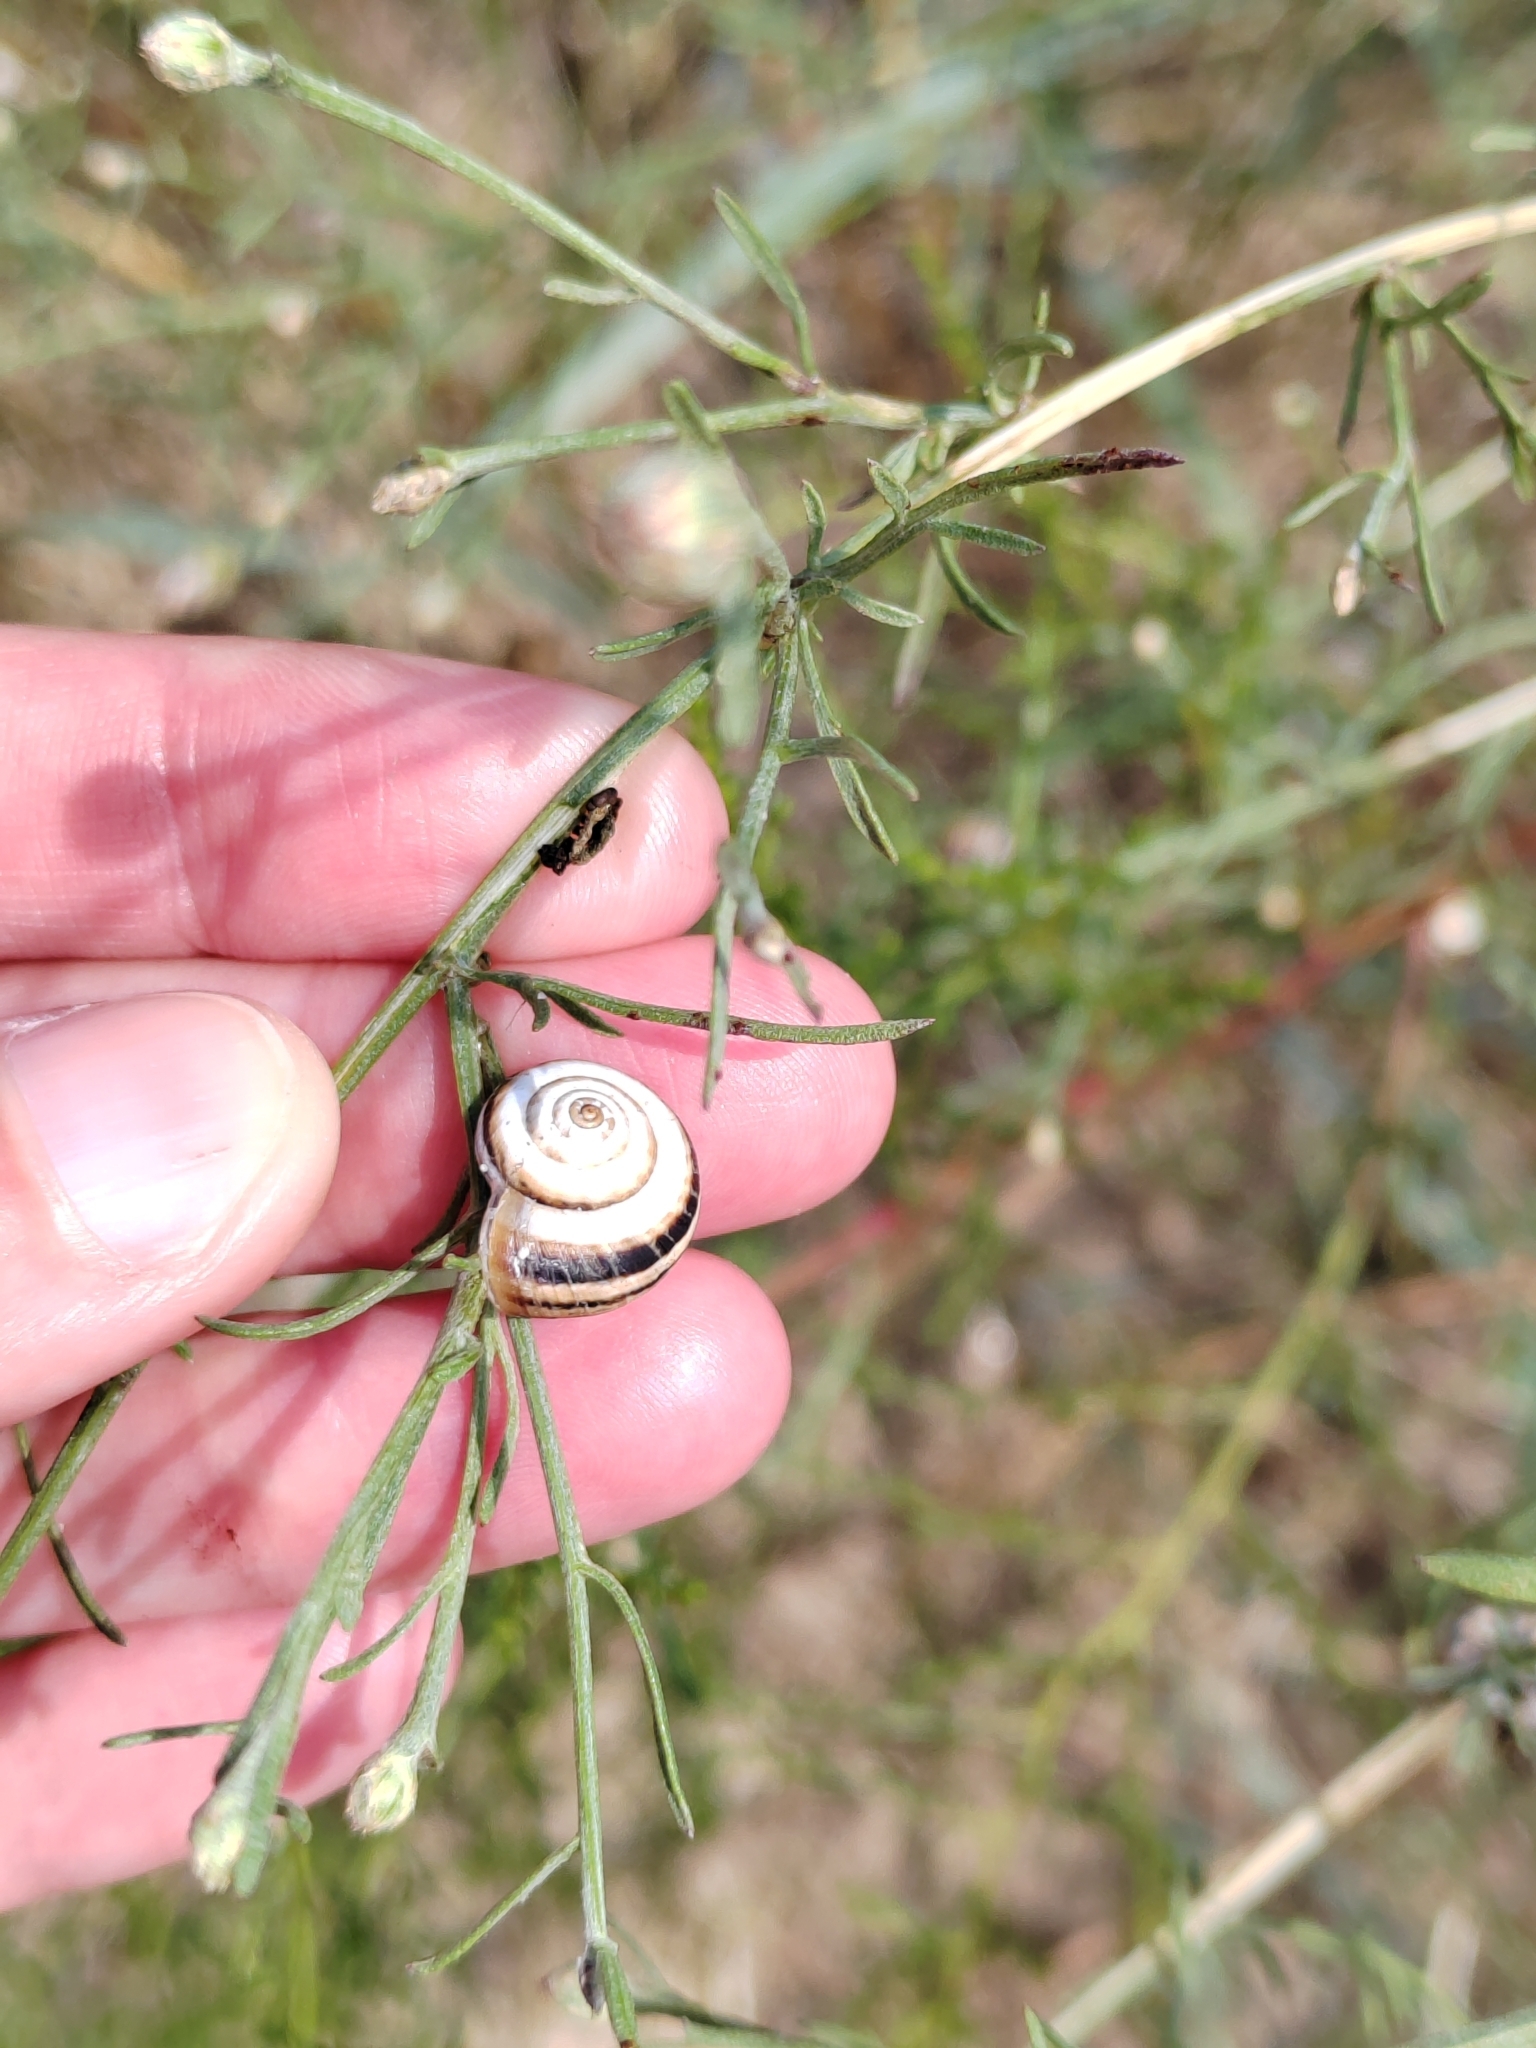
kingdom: Animalia
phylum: Mollusca
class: Gastropoda
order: Stylommatophora
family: Geomitridae
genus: Cernuella
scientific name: Cernuella virgata
